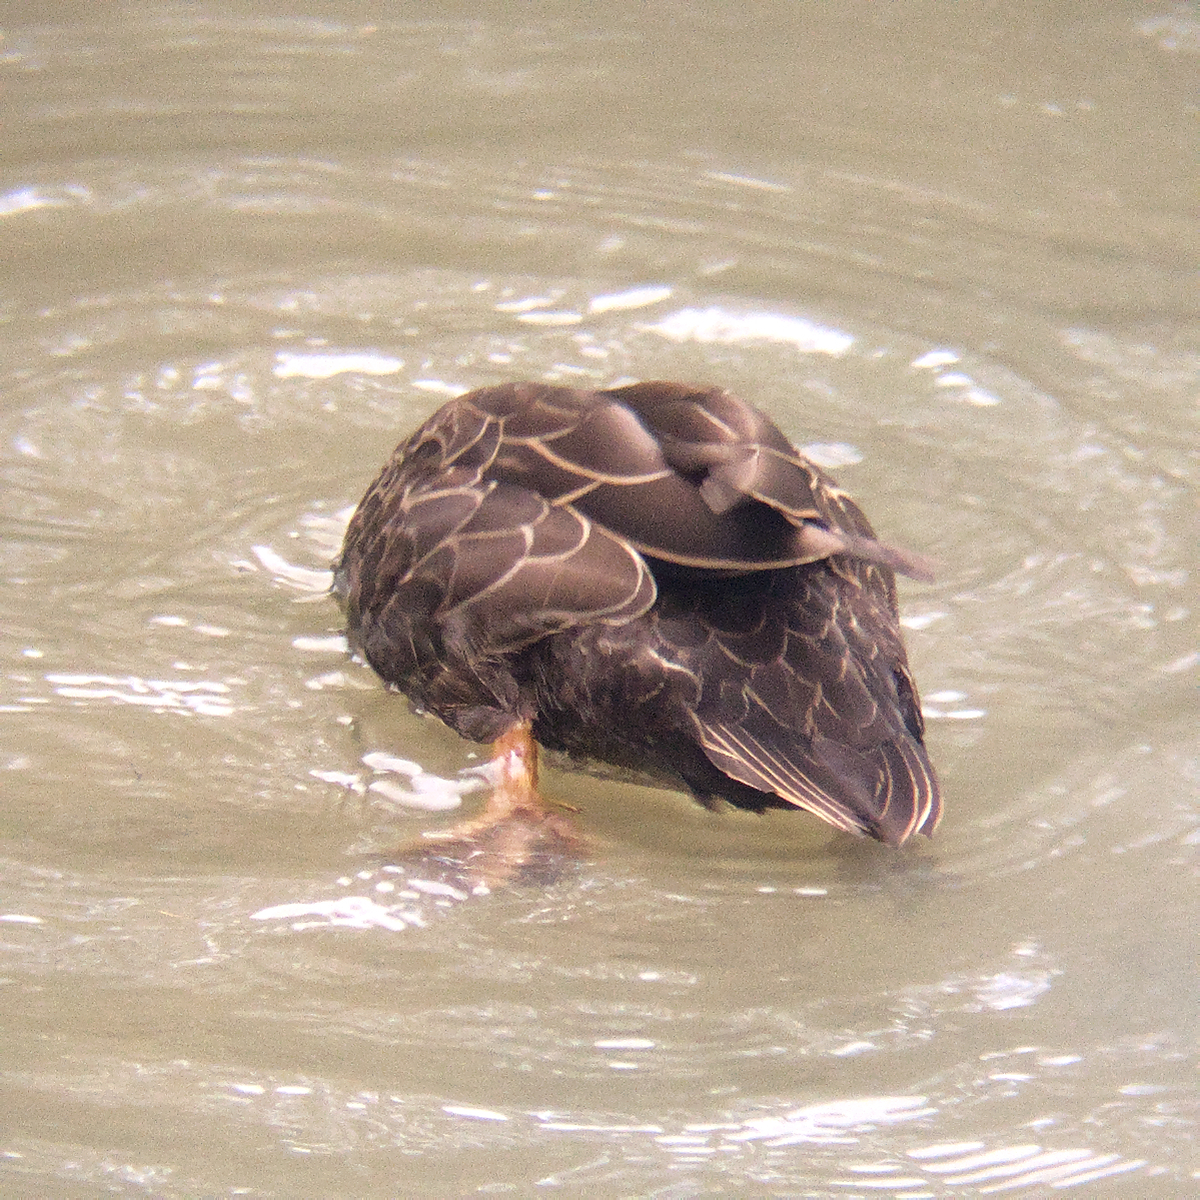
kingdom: Animalia
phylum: Chordata
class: Aves
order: Anseriformes
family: Anatidae
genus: Anas
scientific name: Anas superciliosa
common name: Pacific black duck
